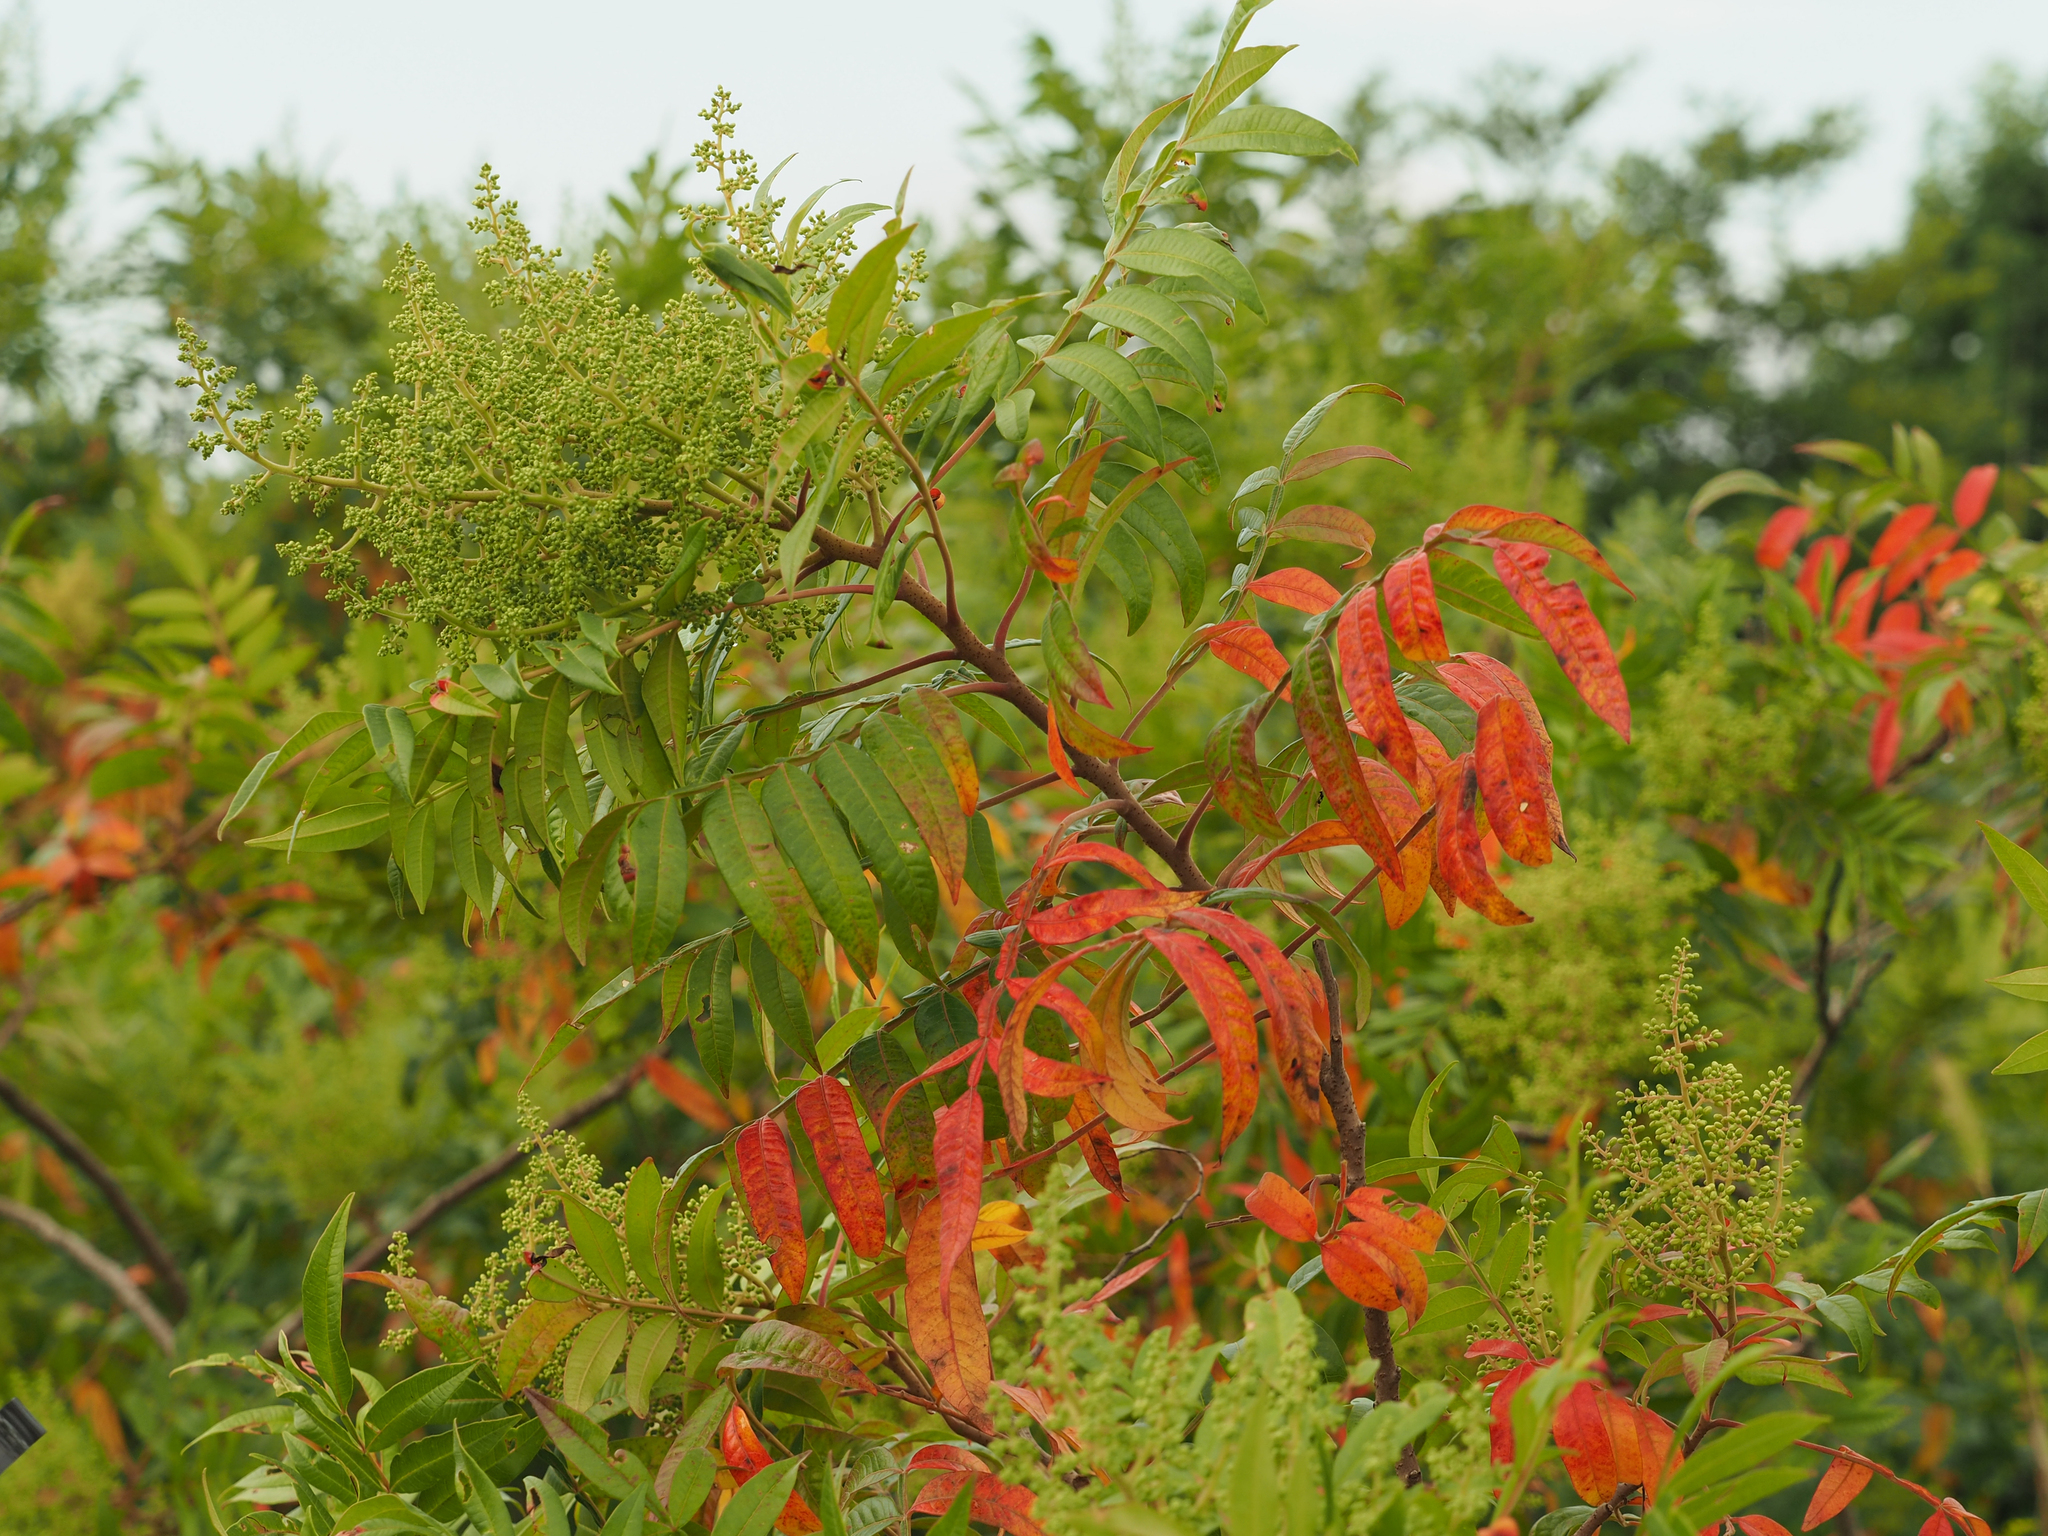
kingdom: Plantae
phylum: Tracheophyta
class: Magnoliopsida
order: Sapindales
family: Anacardiaceae
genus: Rhus
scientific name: Rhus copallina
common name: Shining sumac
